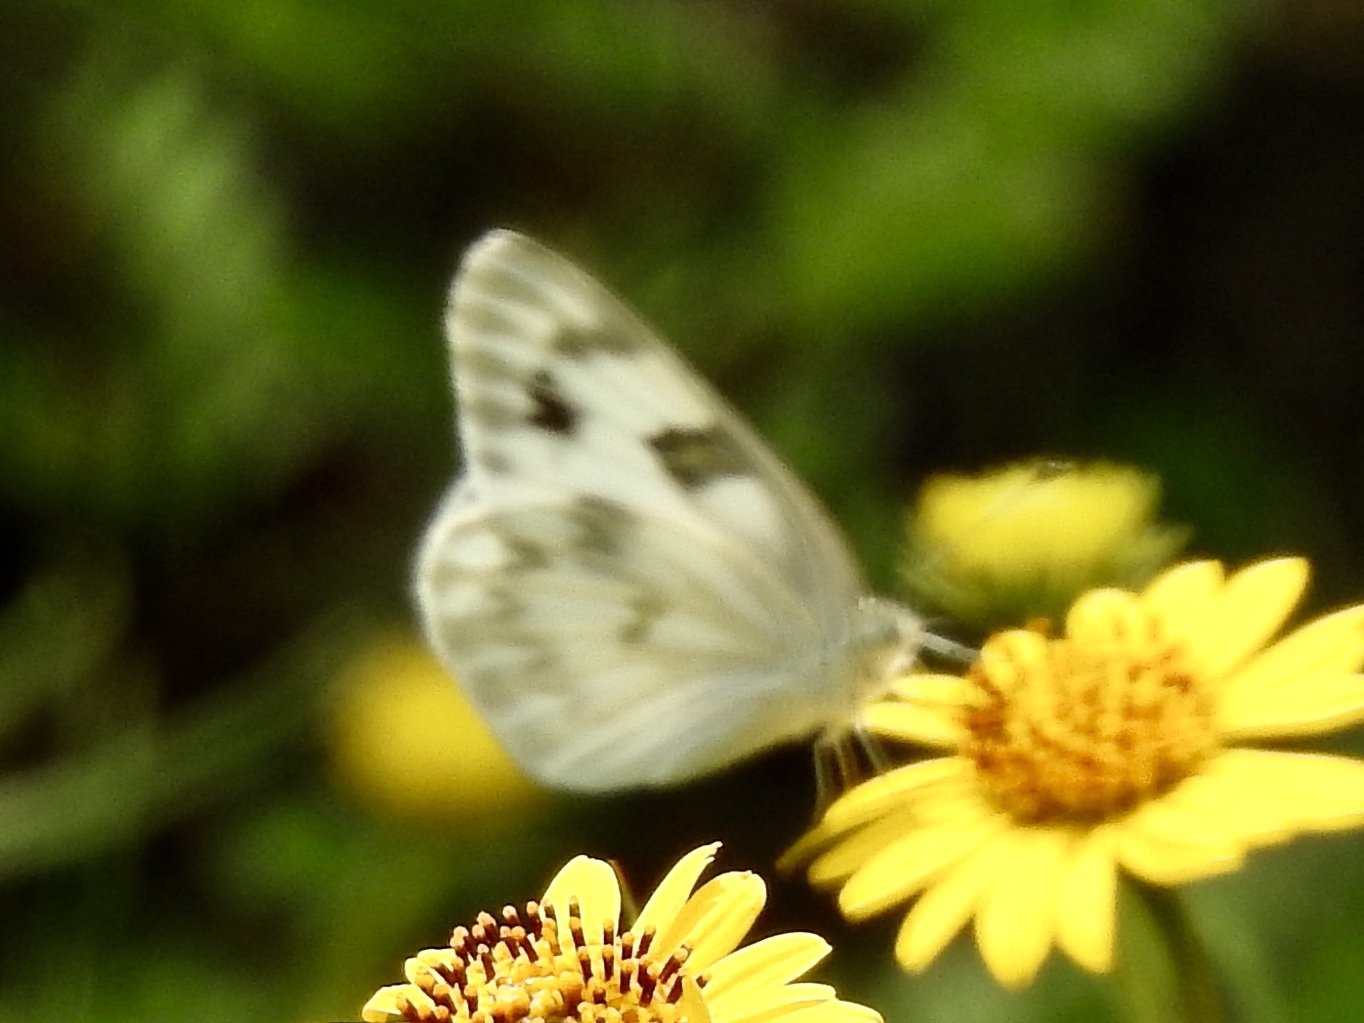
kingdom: Animalia
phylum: Arthropoda
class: Insecta
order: Lepidoptera
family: Pieridae
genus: Pontia
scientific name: Pontia protodice
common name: Checkered white
